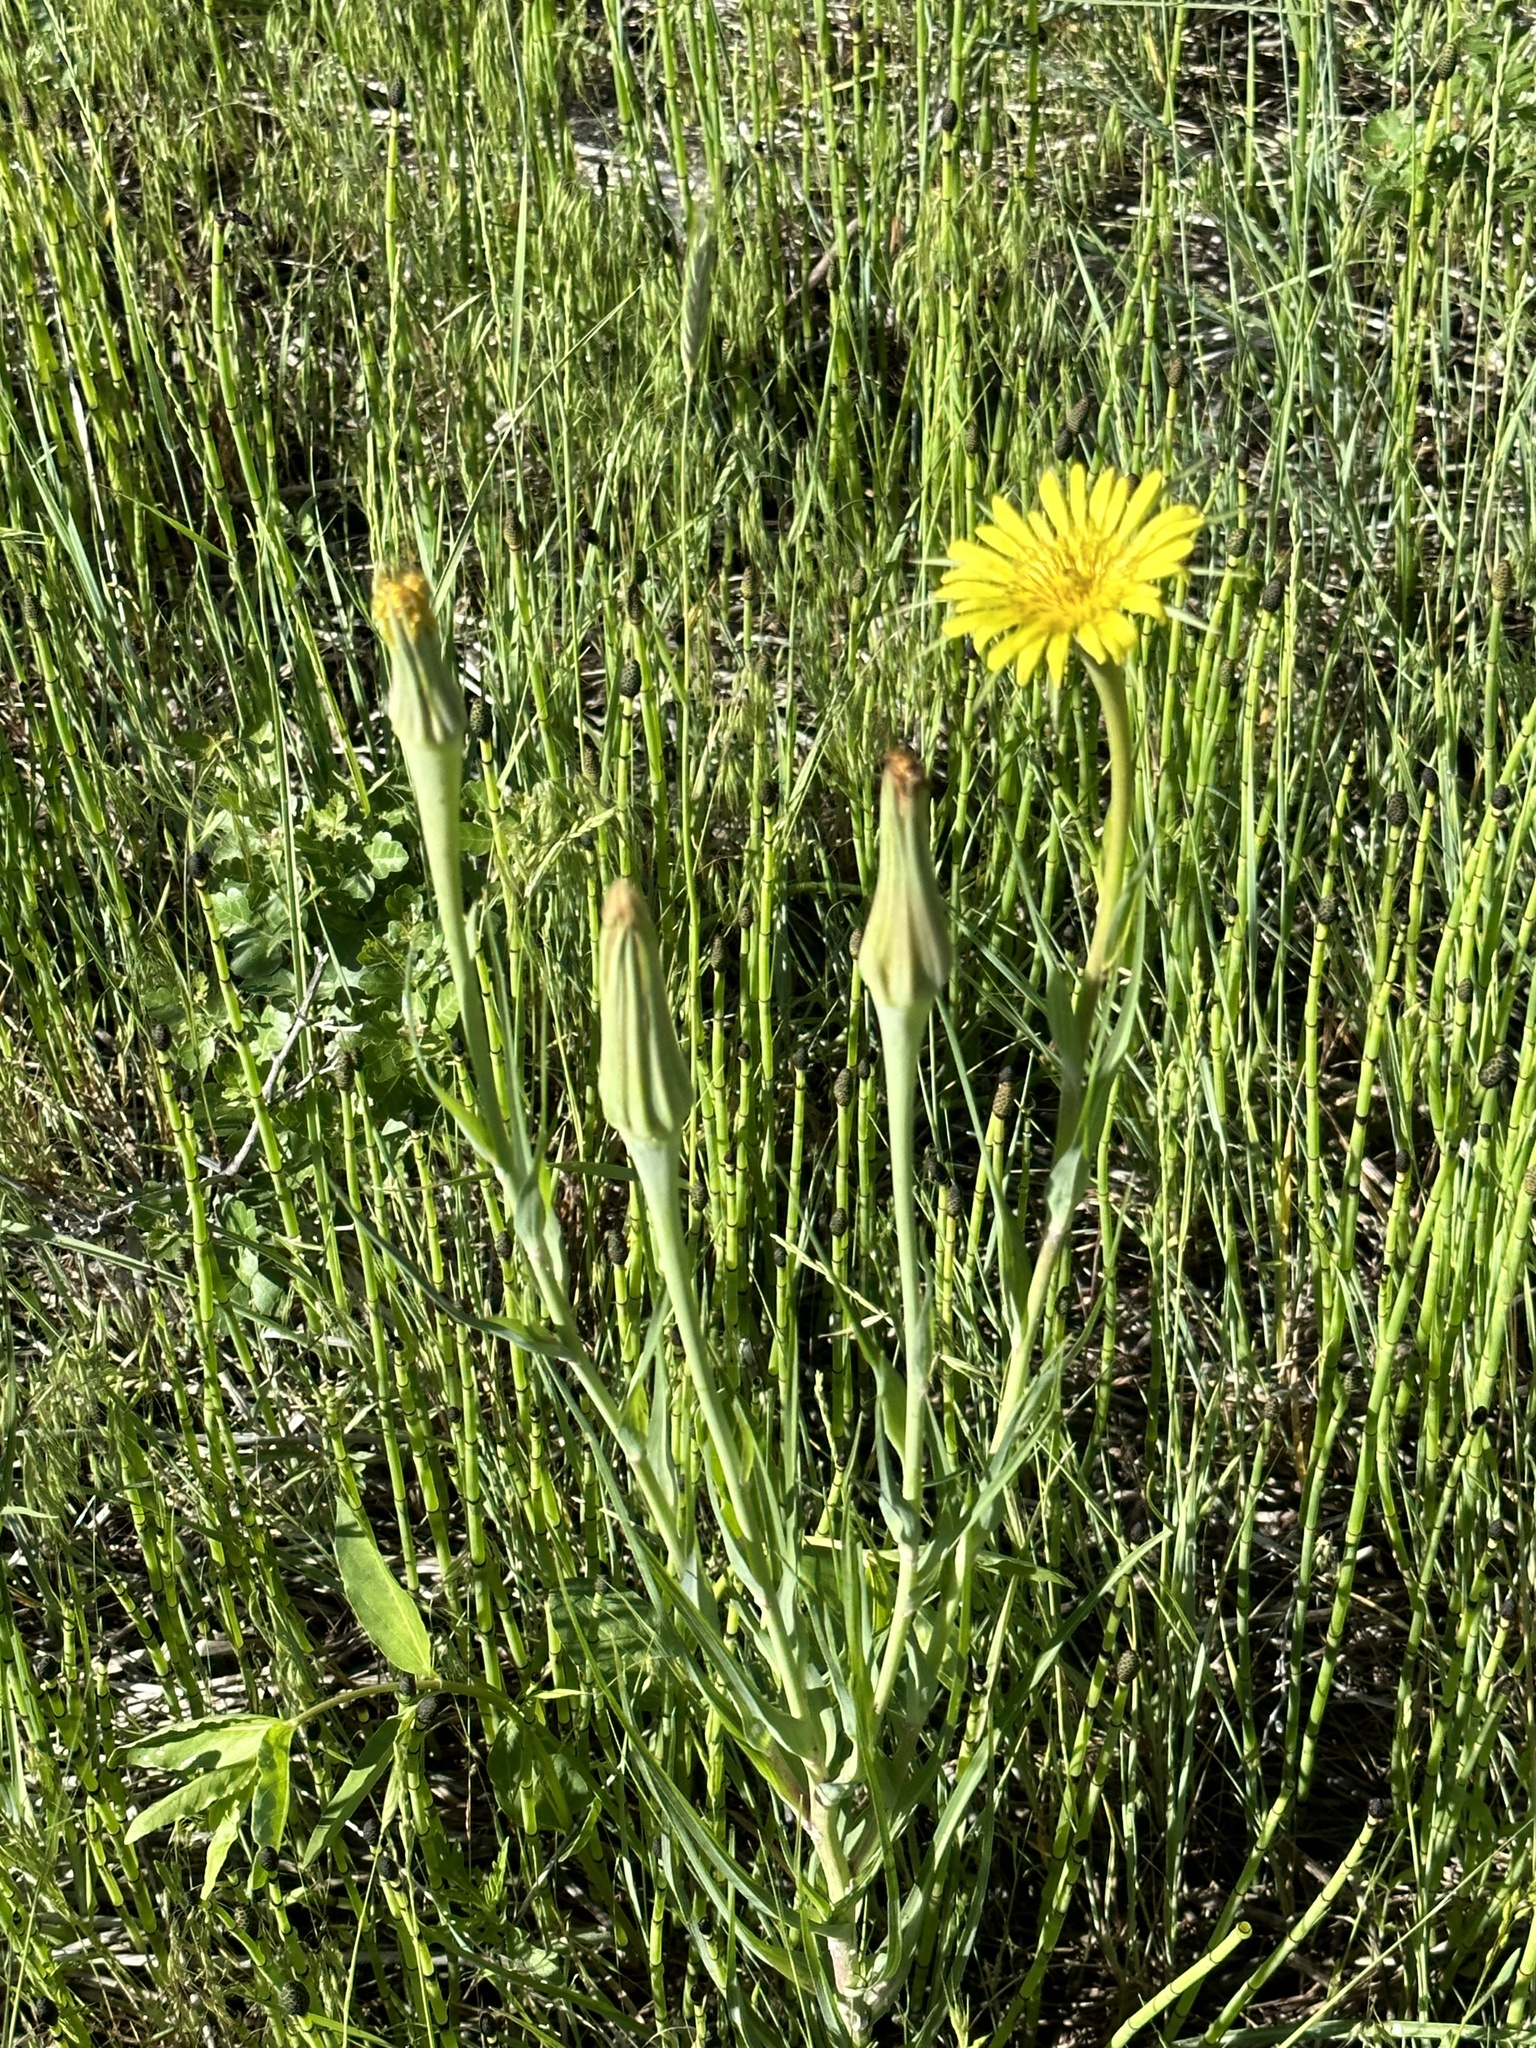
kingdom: Plantae
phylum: Tracheophyta
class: Magnoliopsida
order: Asterales
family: Asteraceae
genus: Tragopogon
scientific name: Tragopogon dubius
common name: Yellow salsify
